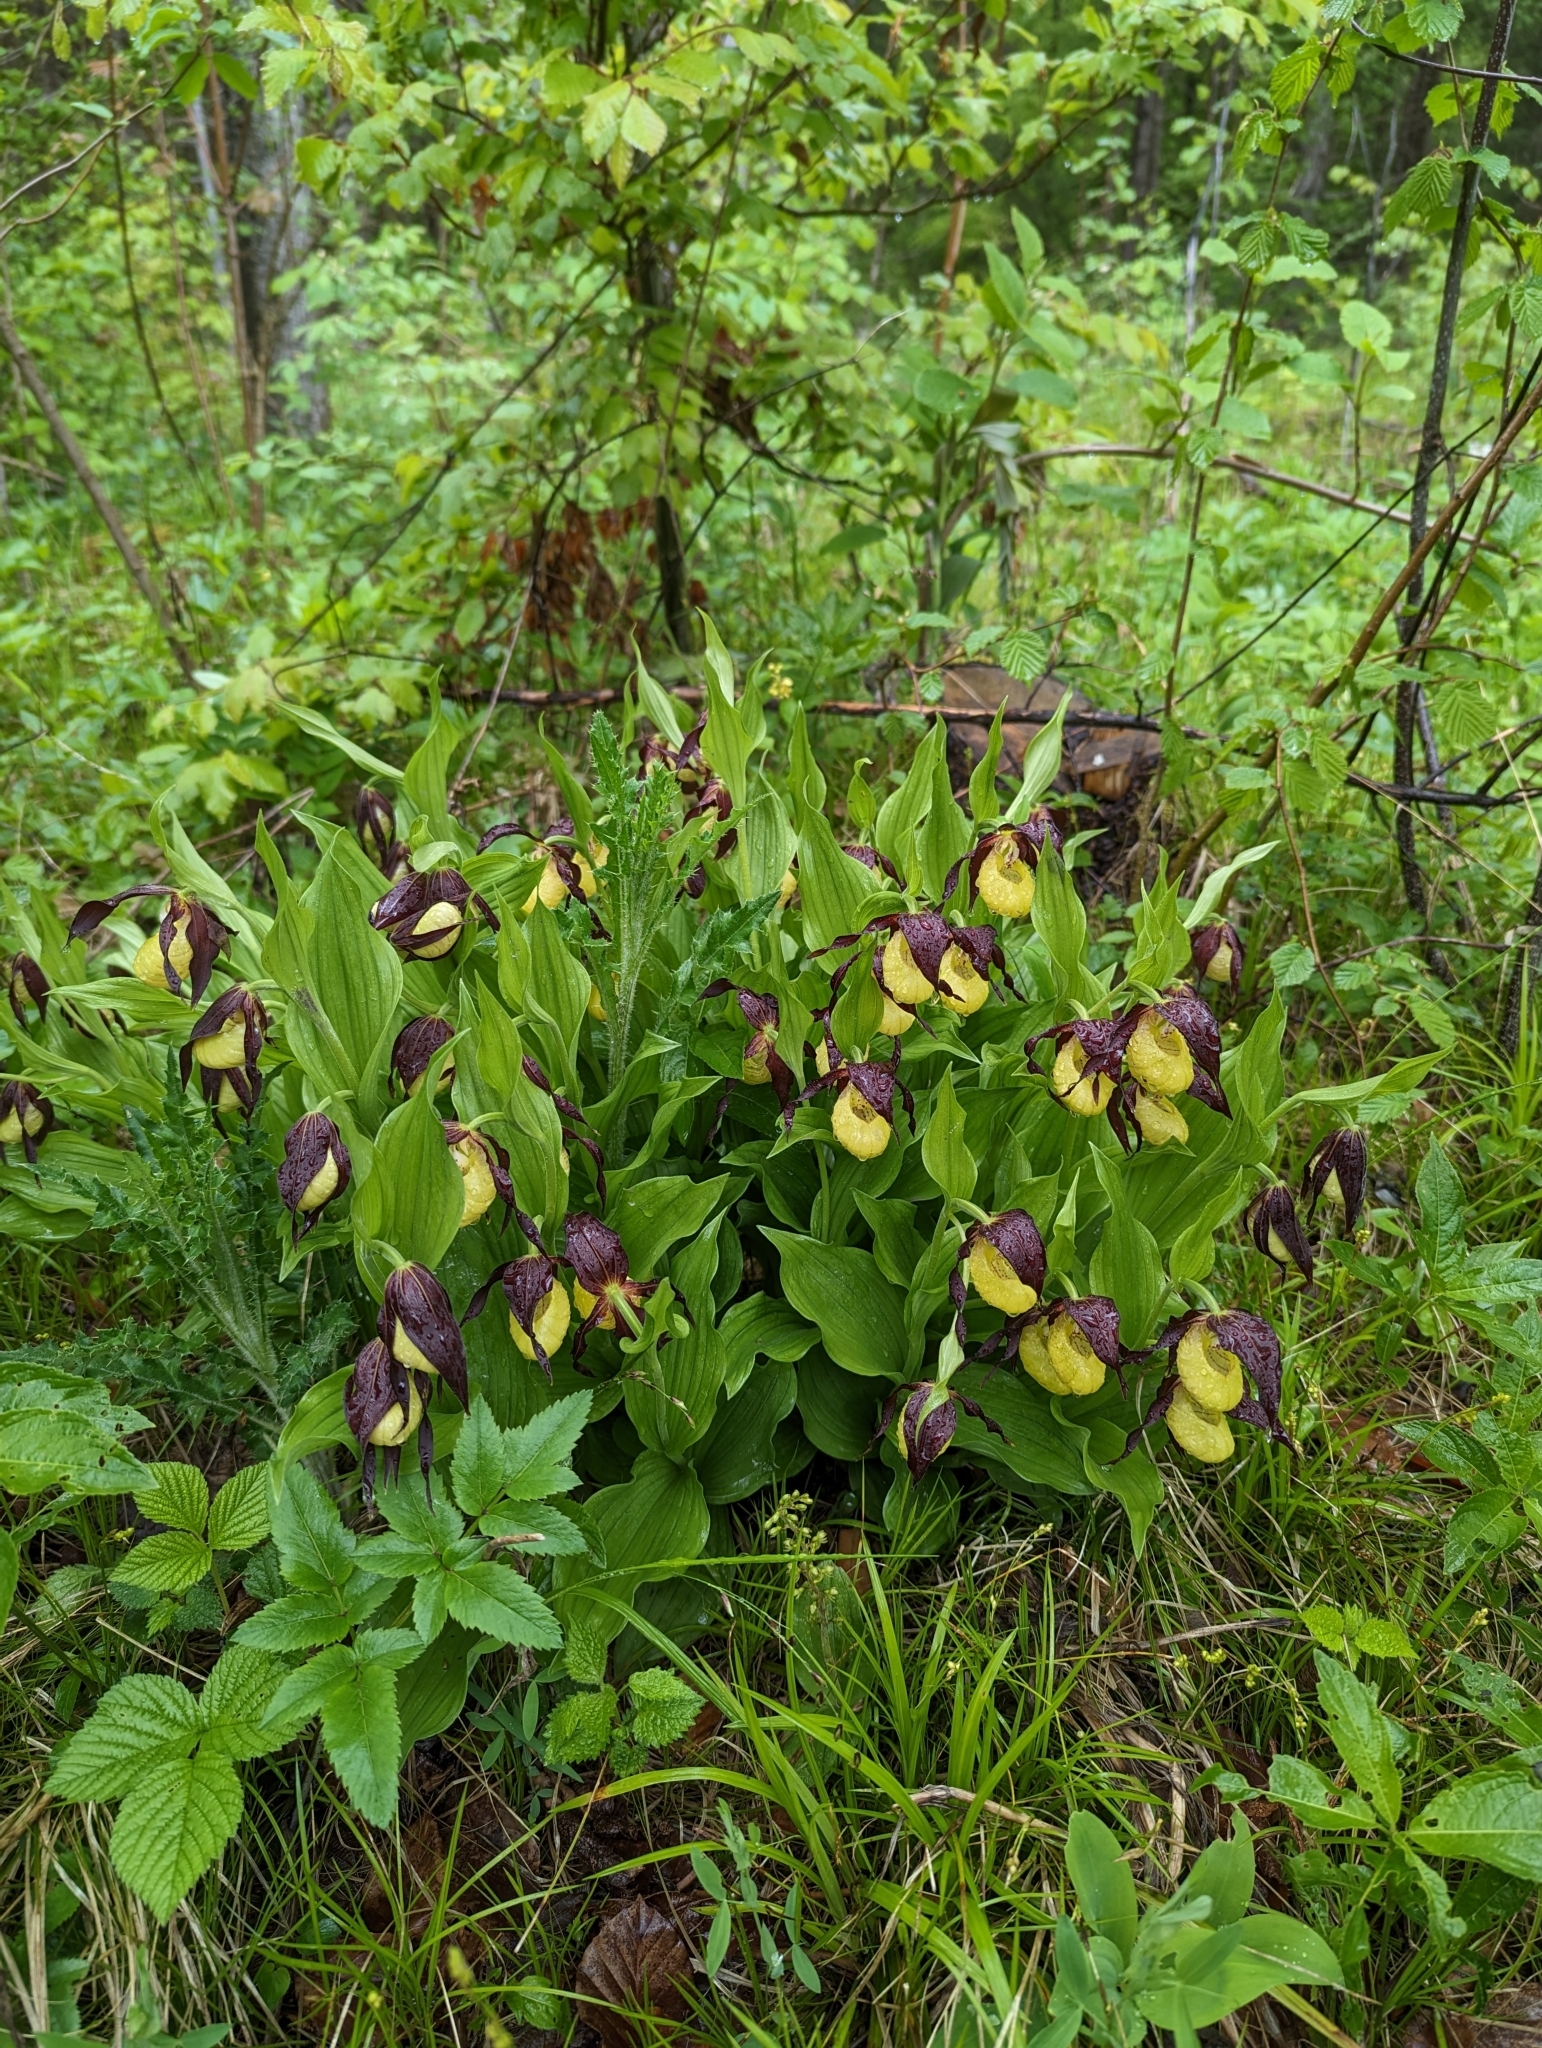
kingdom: Plantae
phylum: Tracheophyta
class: Liliopsida
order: Asparagales
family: Orchidaceae
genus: Cypripedium
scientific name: Cypripedium calceolus
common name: Lady's-slipper
